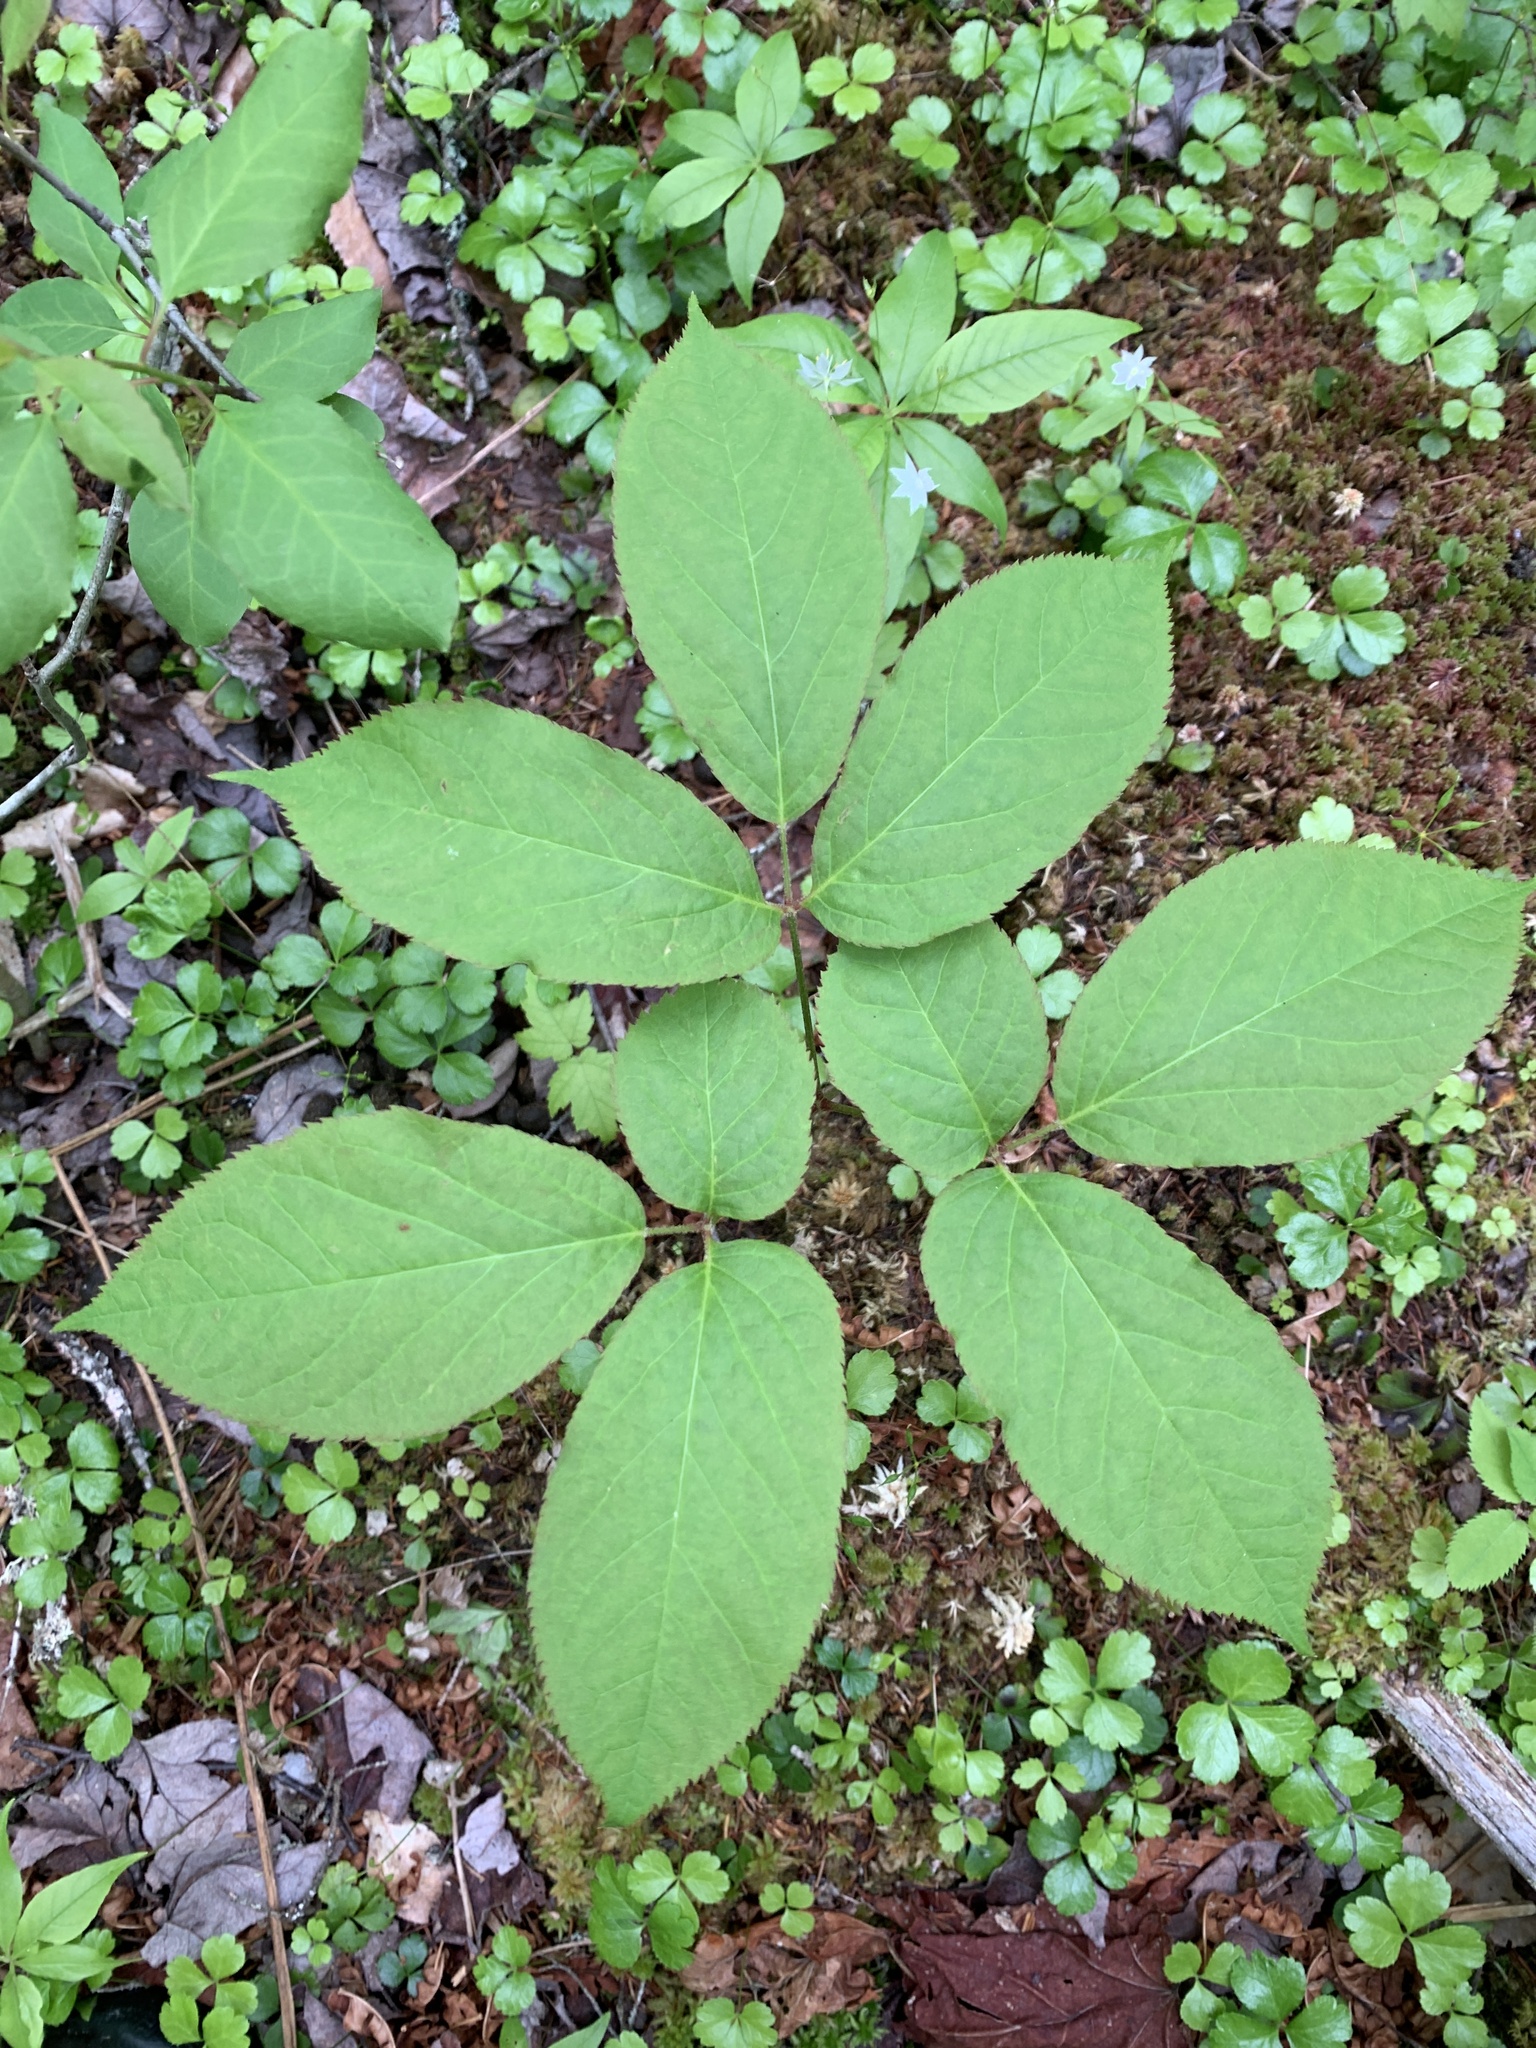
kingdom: Plantae
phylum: Tracheophyta
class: Magnoliopsida
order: Apiales
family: Araliaceae
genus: Aralia
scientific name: Aralia nudicaulis
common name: Wild sarsaparilla
